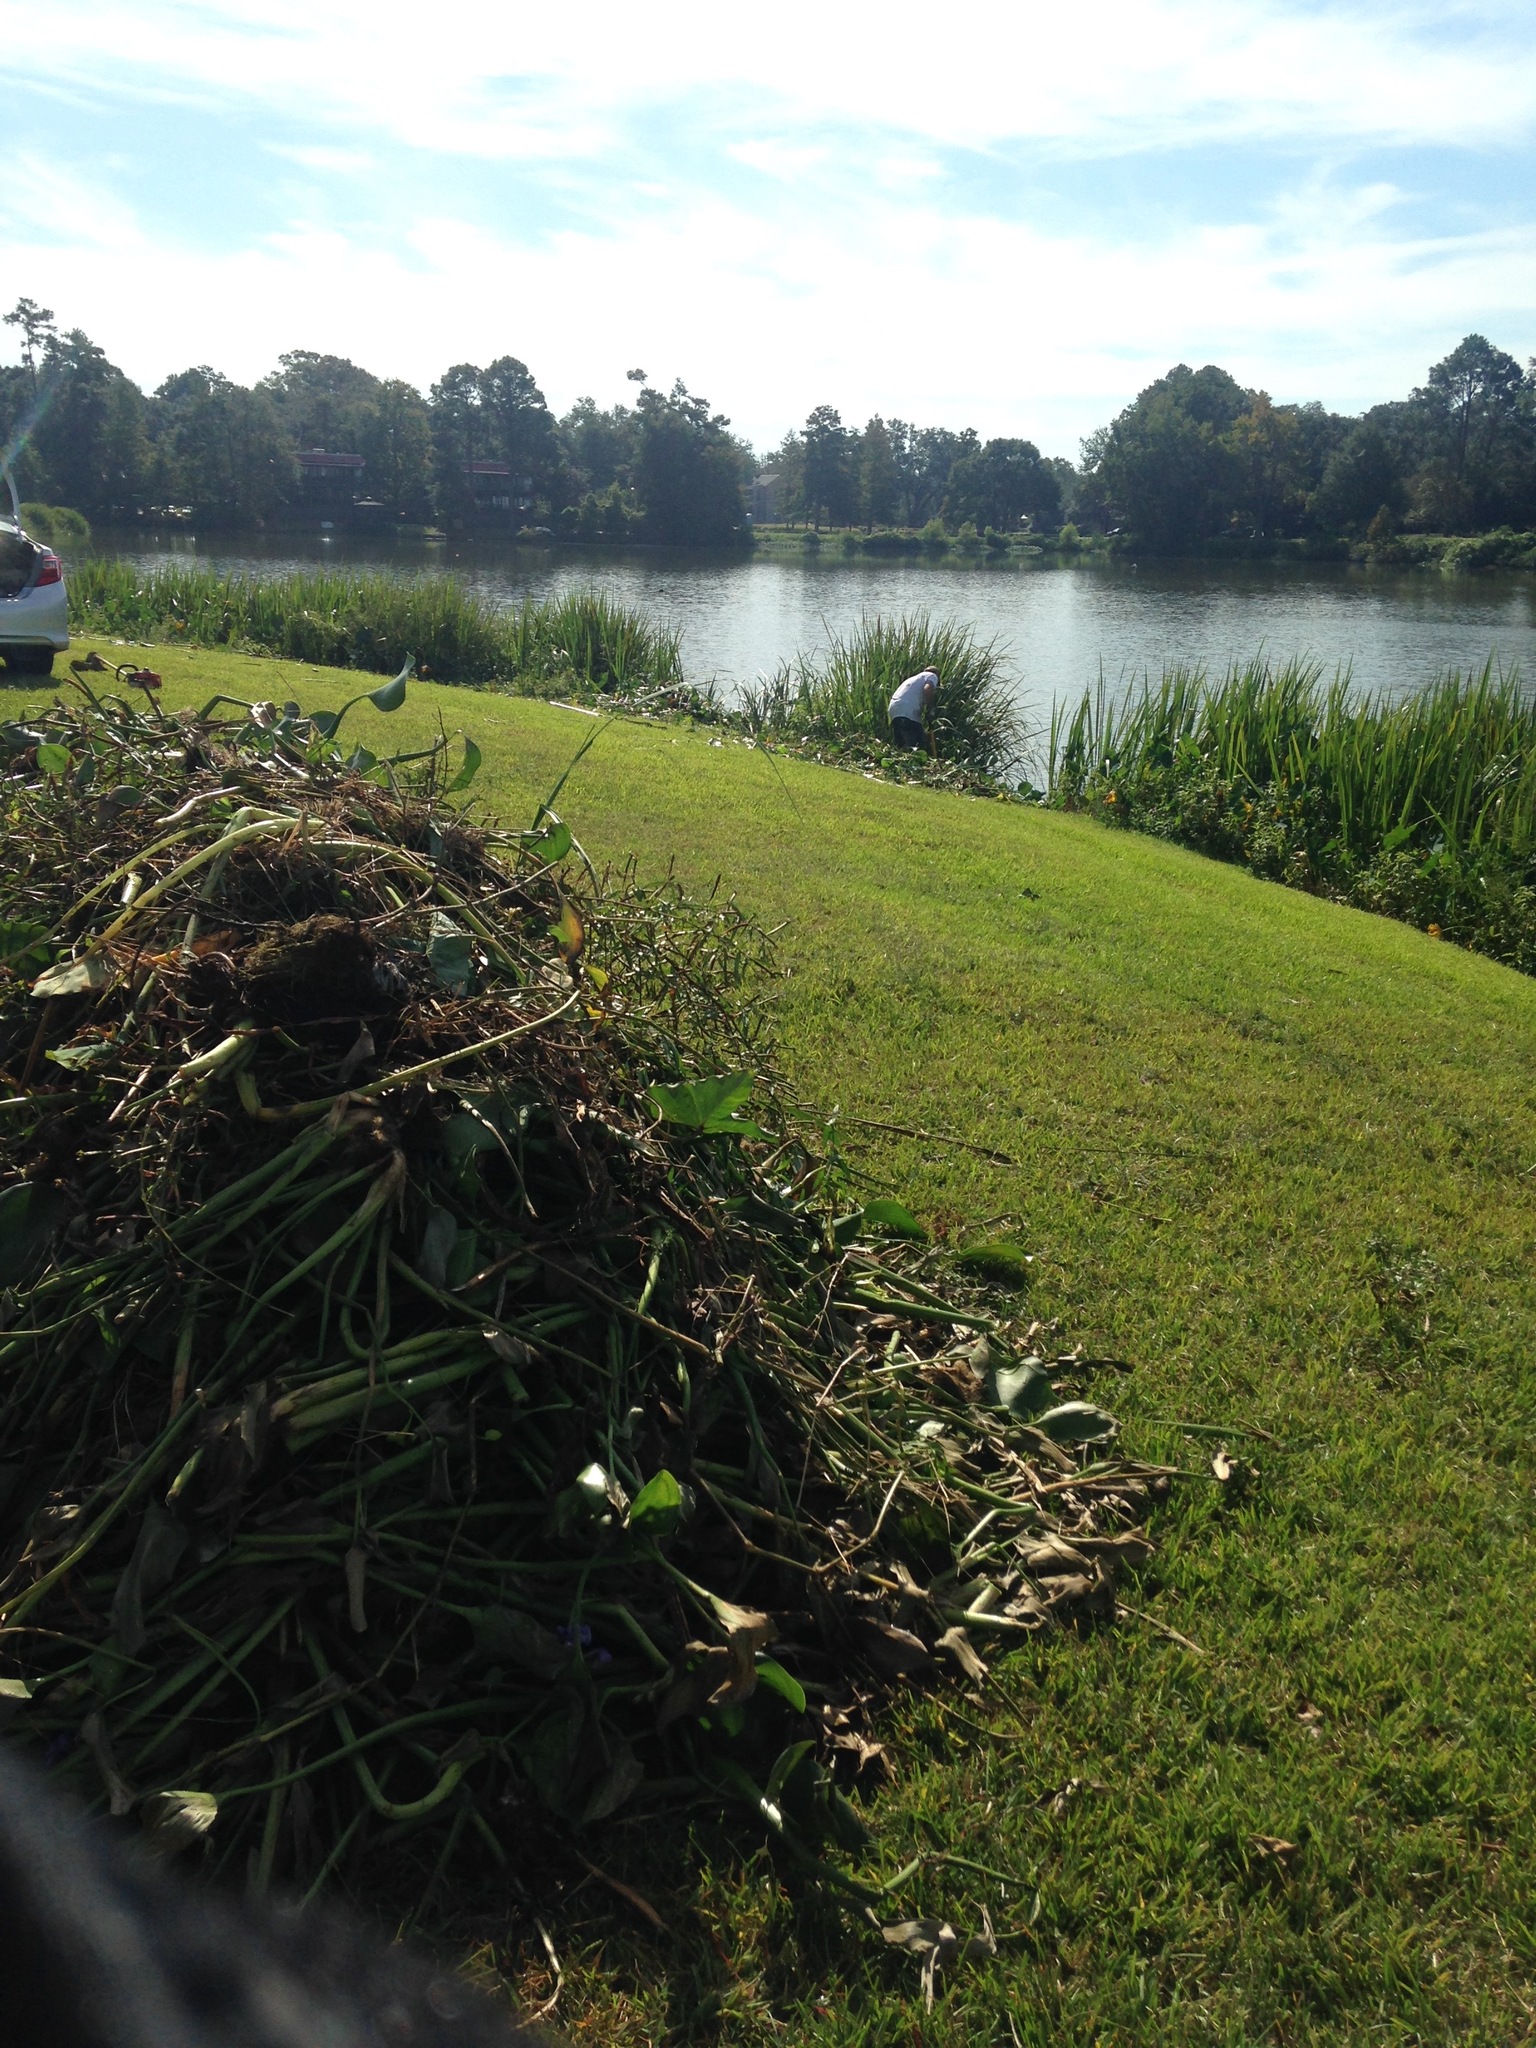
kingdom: Plantae
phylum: Tracheophyta
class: Liliopsida
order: Commelinales
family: Pontederiaceae
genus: Pontederia
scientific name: Pontederia crassipes
